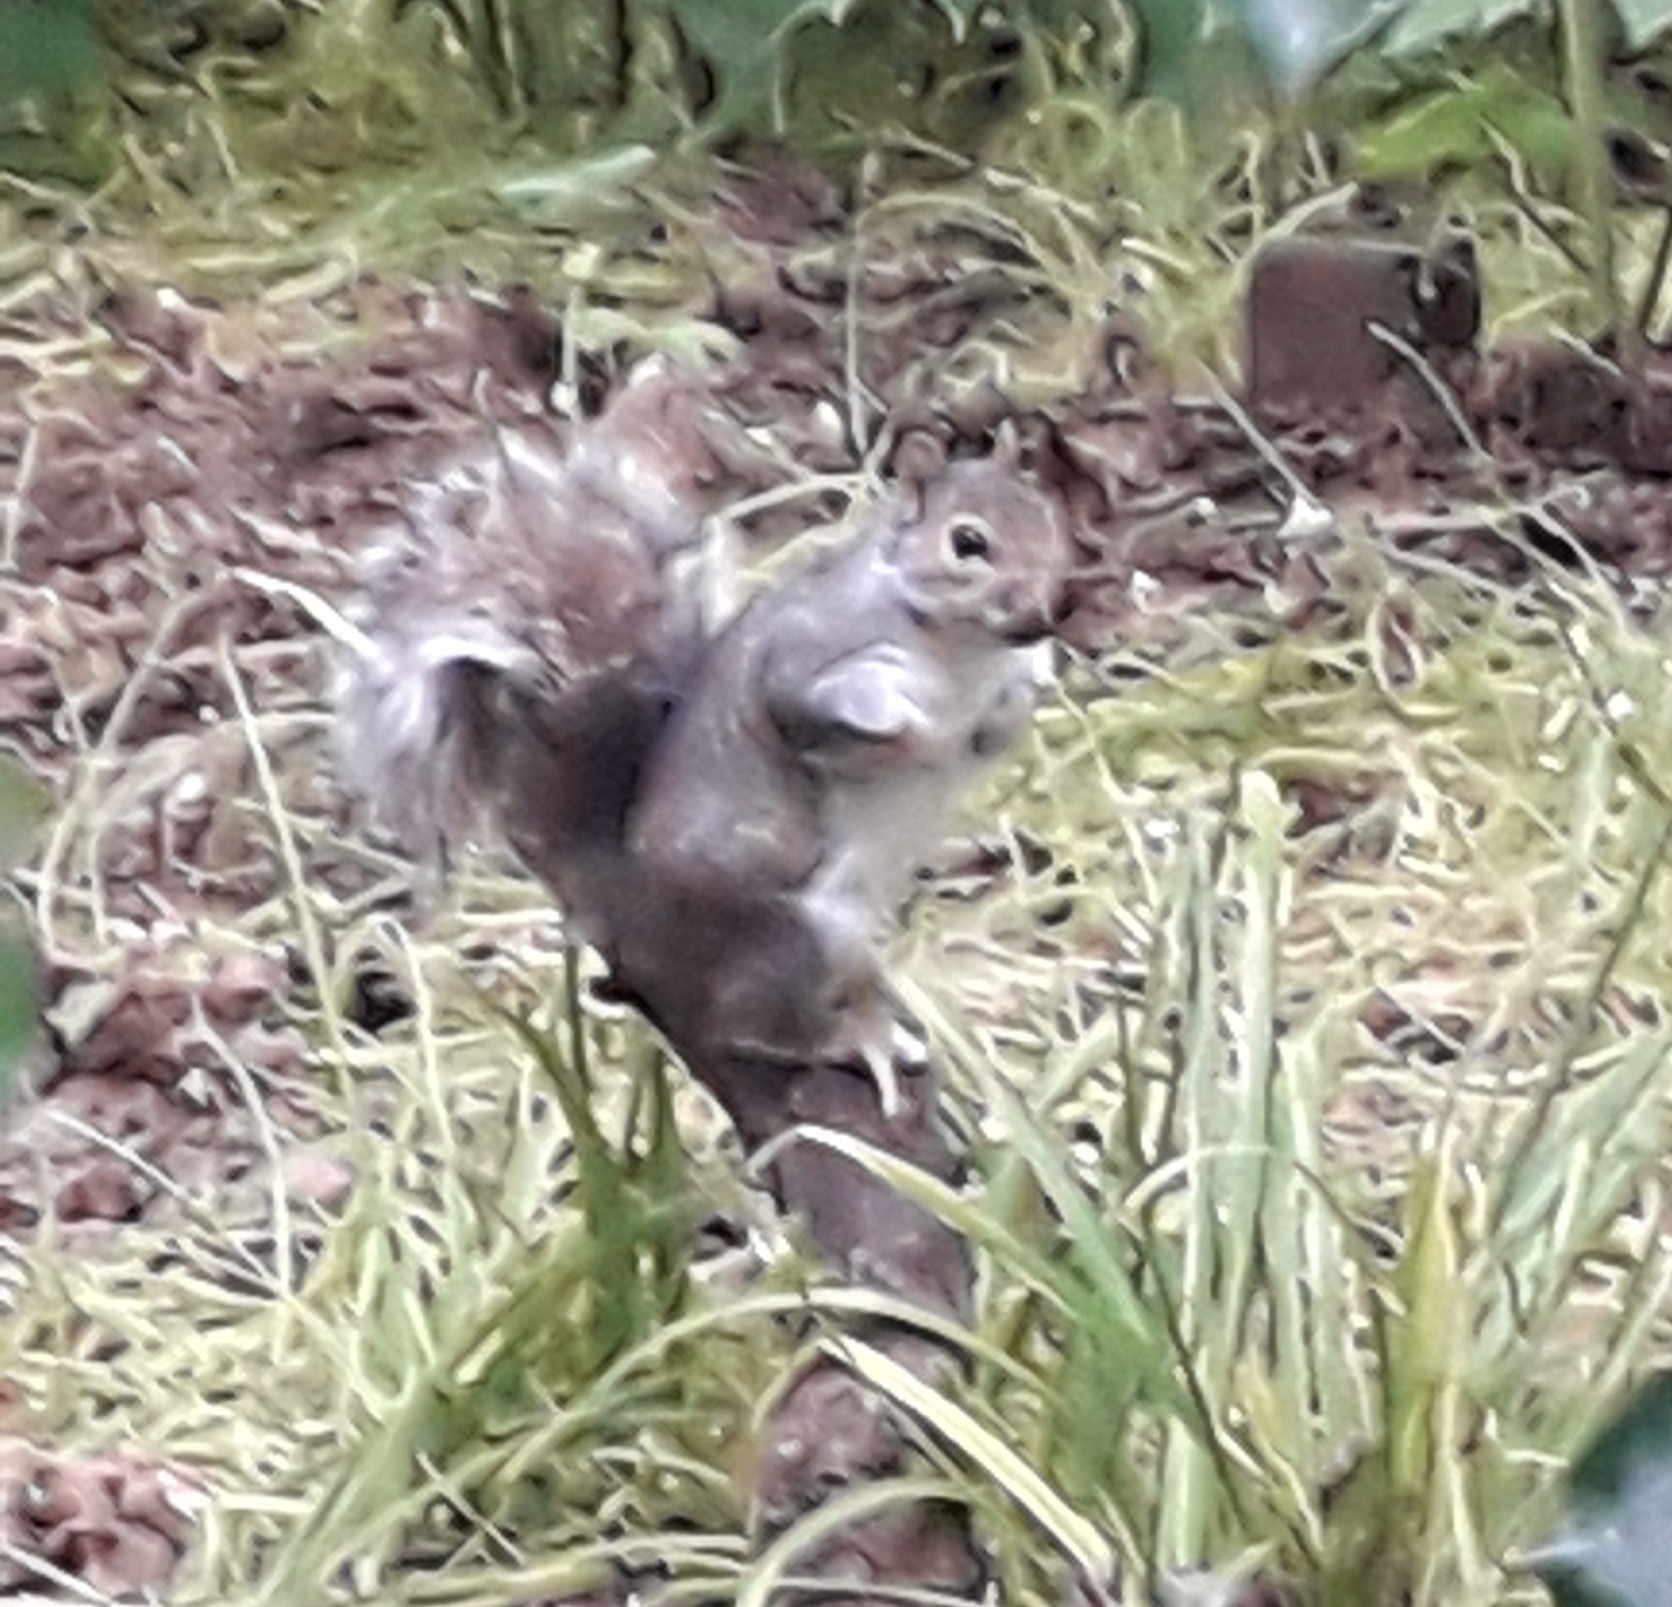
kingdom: Animalia
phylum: Chordata
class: Mammalia
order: Rodentia
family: Sciuridae
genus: Sciurus
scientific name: Sciurus carolinensis
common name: Eastern gray squirrel
